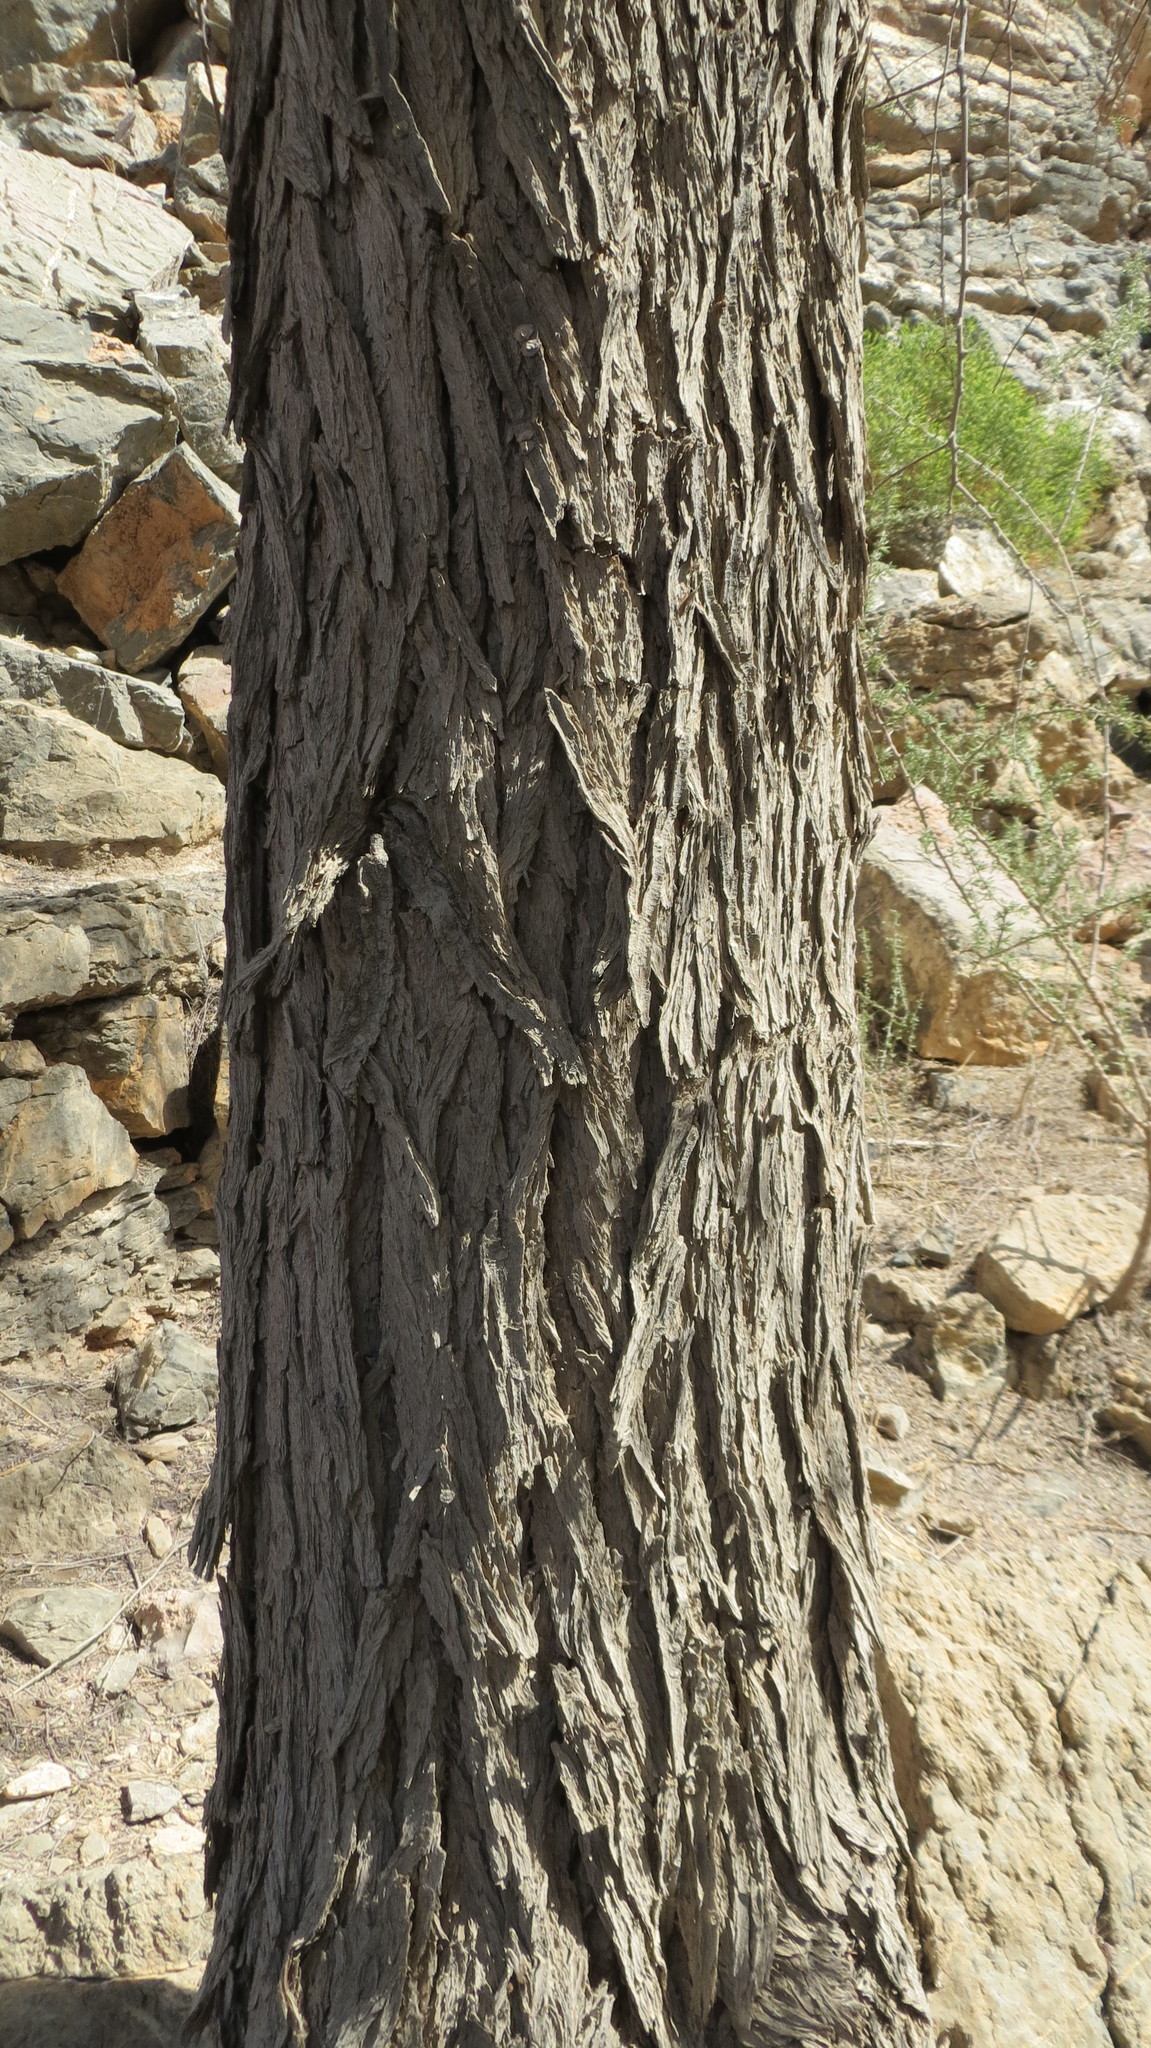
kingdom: Plantae
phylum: Tracheophyta
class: Magnoliopsida
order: Fabales
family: Fabaceae
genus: Prosopis
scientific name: Prosopis cineraria
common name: Jandi
